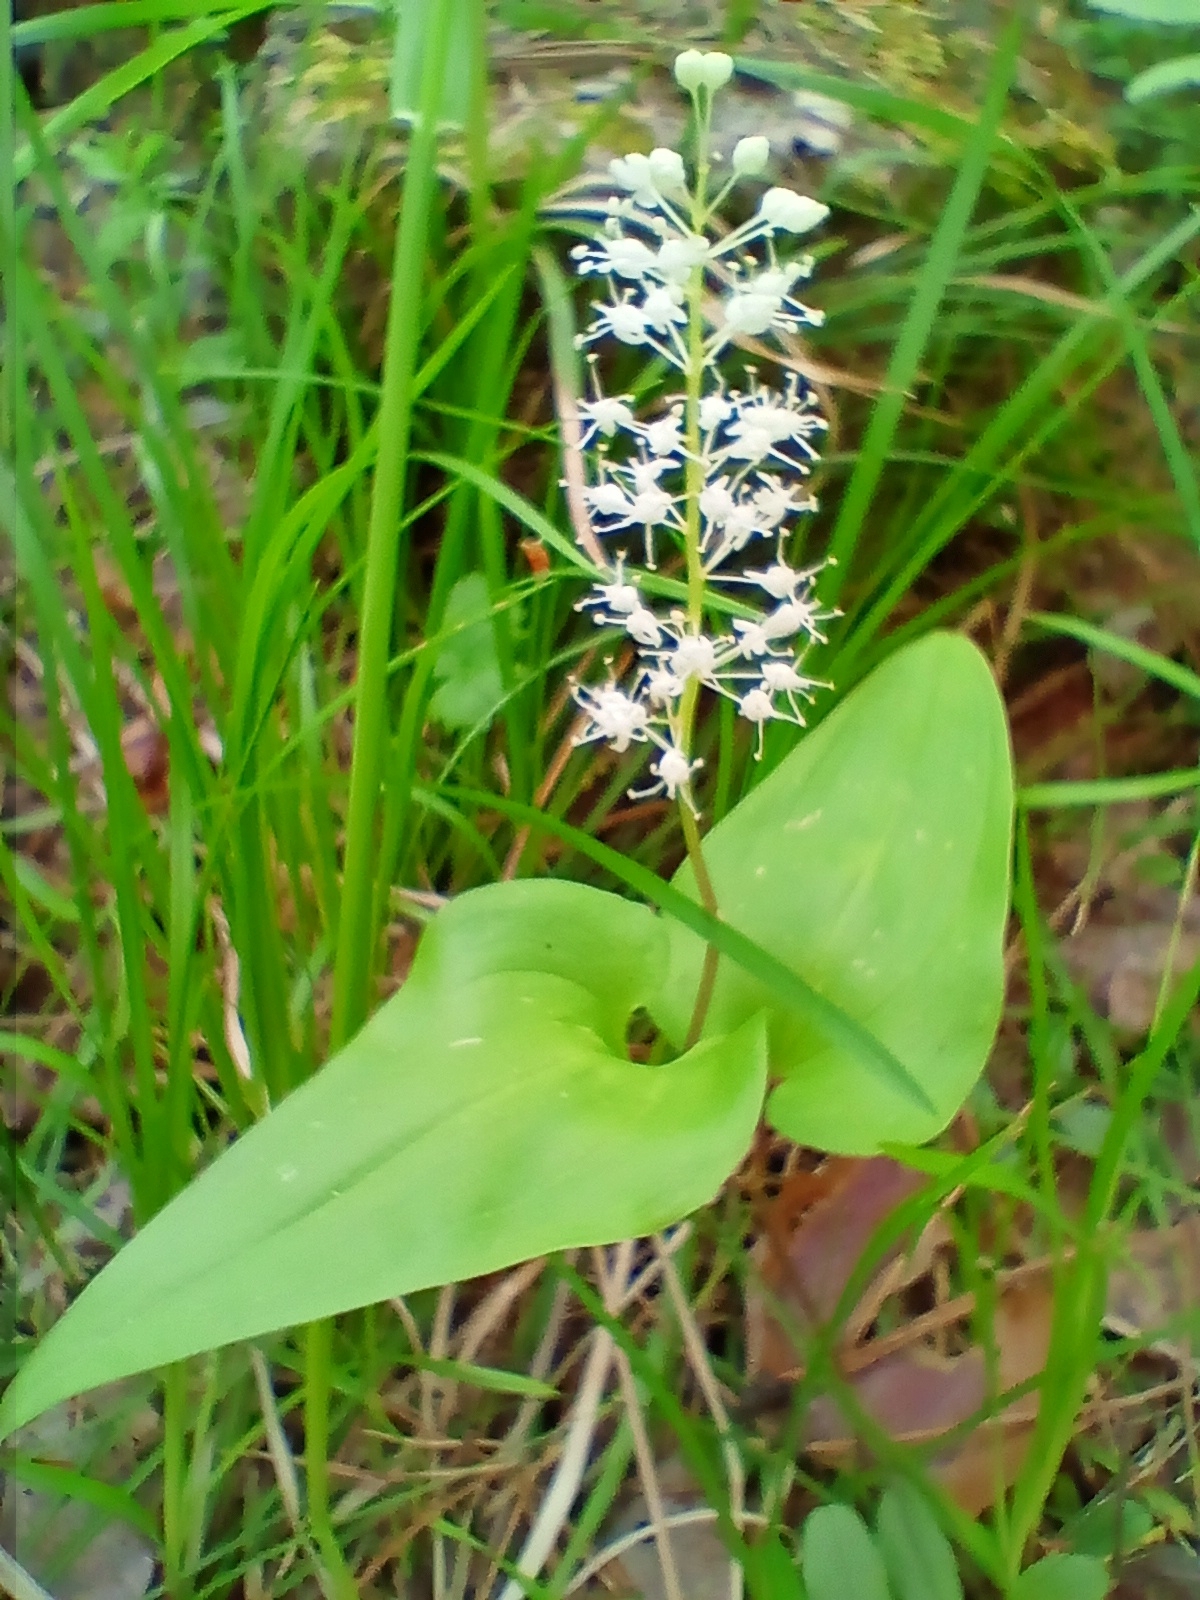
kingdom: Plantae
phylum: Tracheophyta
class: Liliopsida
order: Asparagales
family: Asparagaceae
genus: Maianthemum
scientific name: Maianthemum bifolium
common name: May lily
